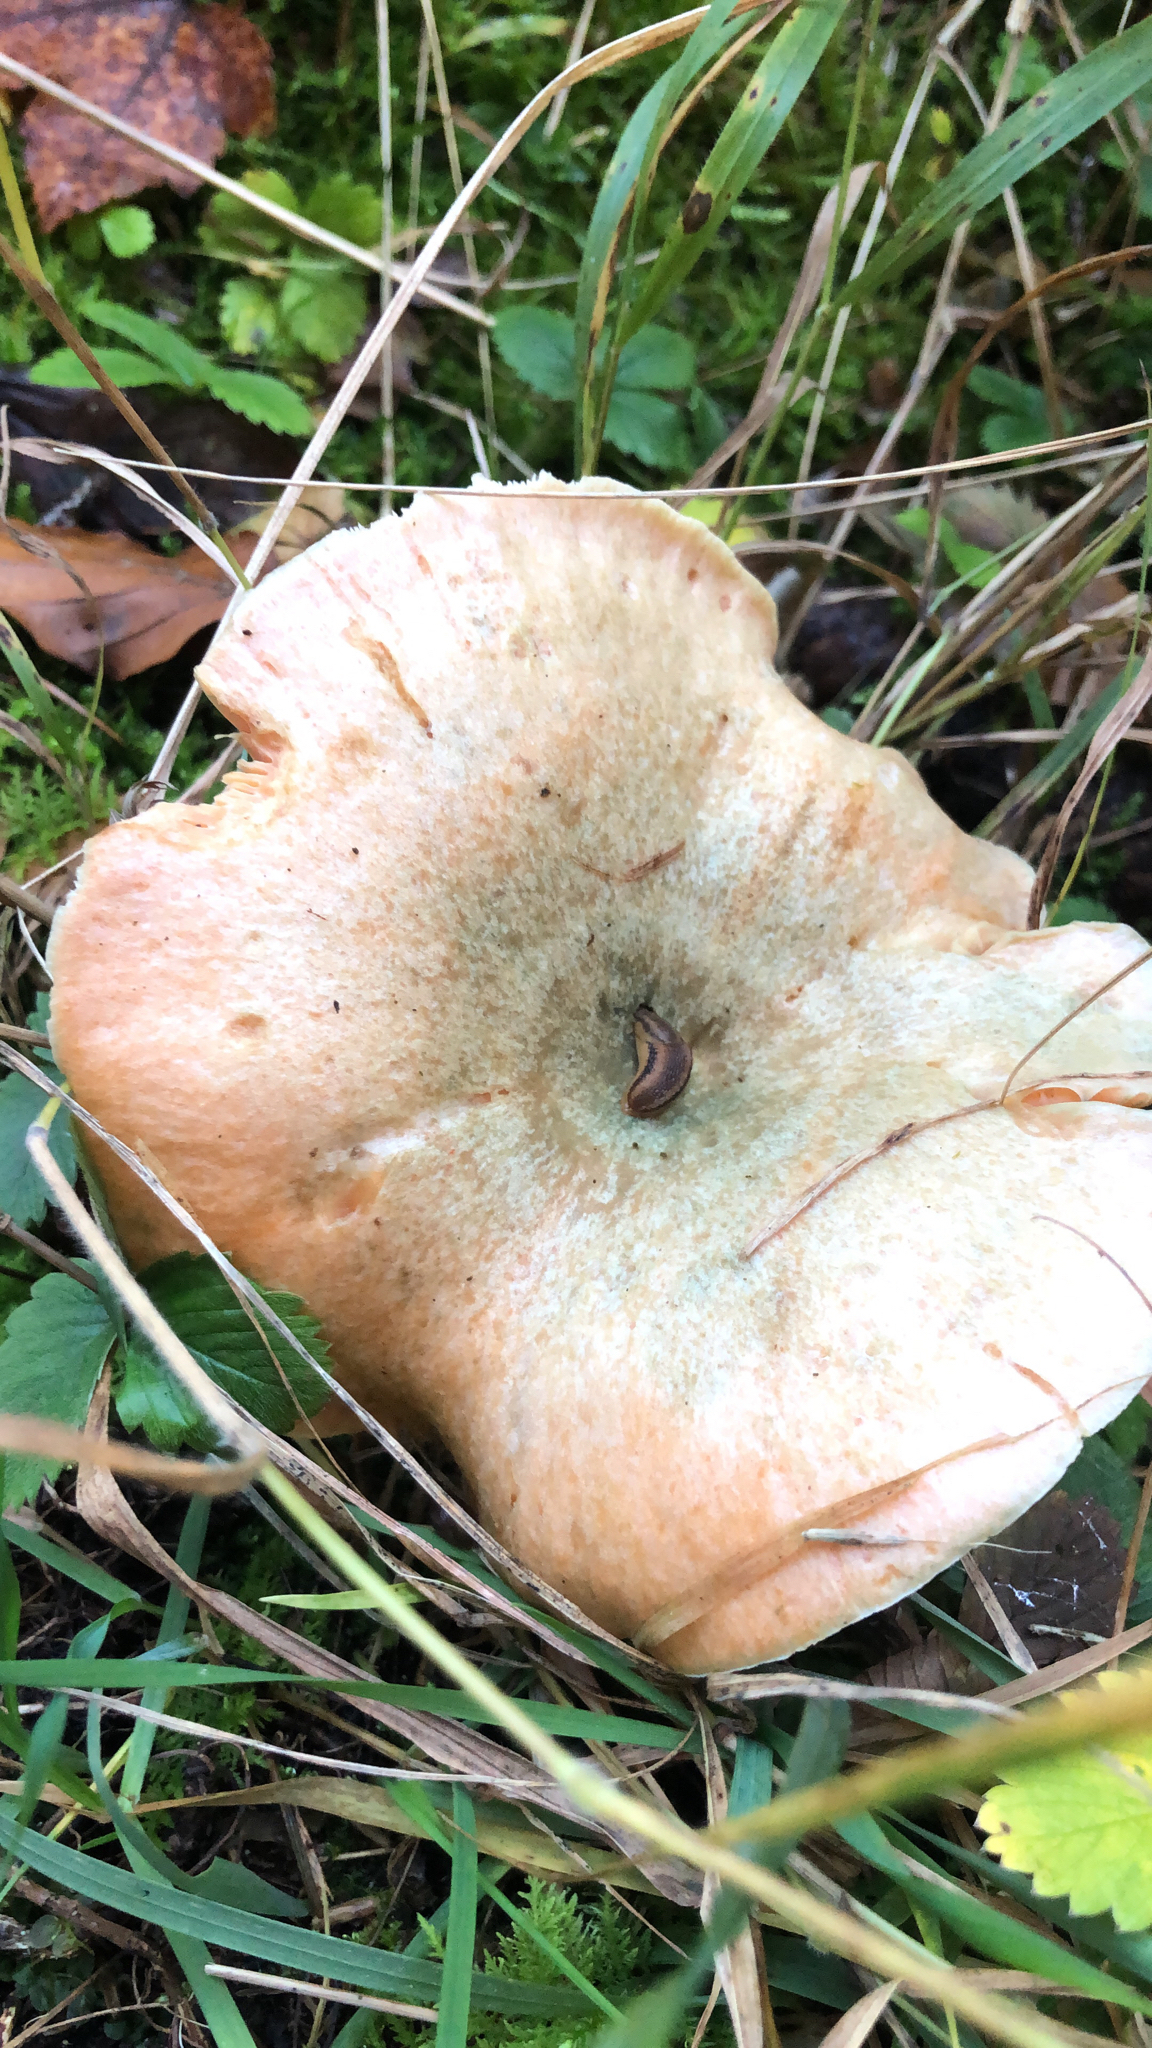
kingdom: Fungi
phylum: Basidiomycota
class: Agaricomycetes
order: Russulales
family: Russulaceae
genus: Lactarius
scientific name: Lactarius deliciosus
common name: Saffron milk-cap
